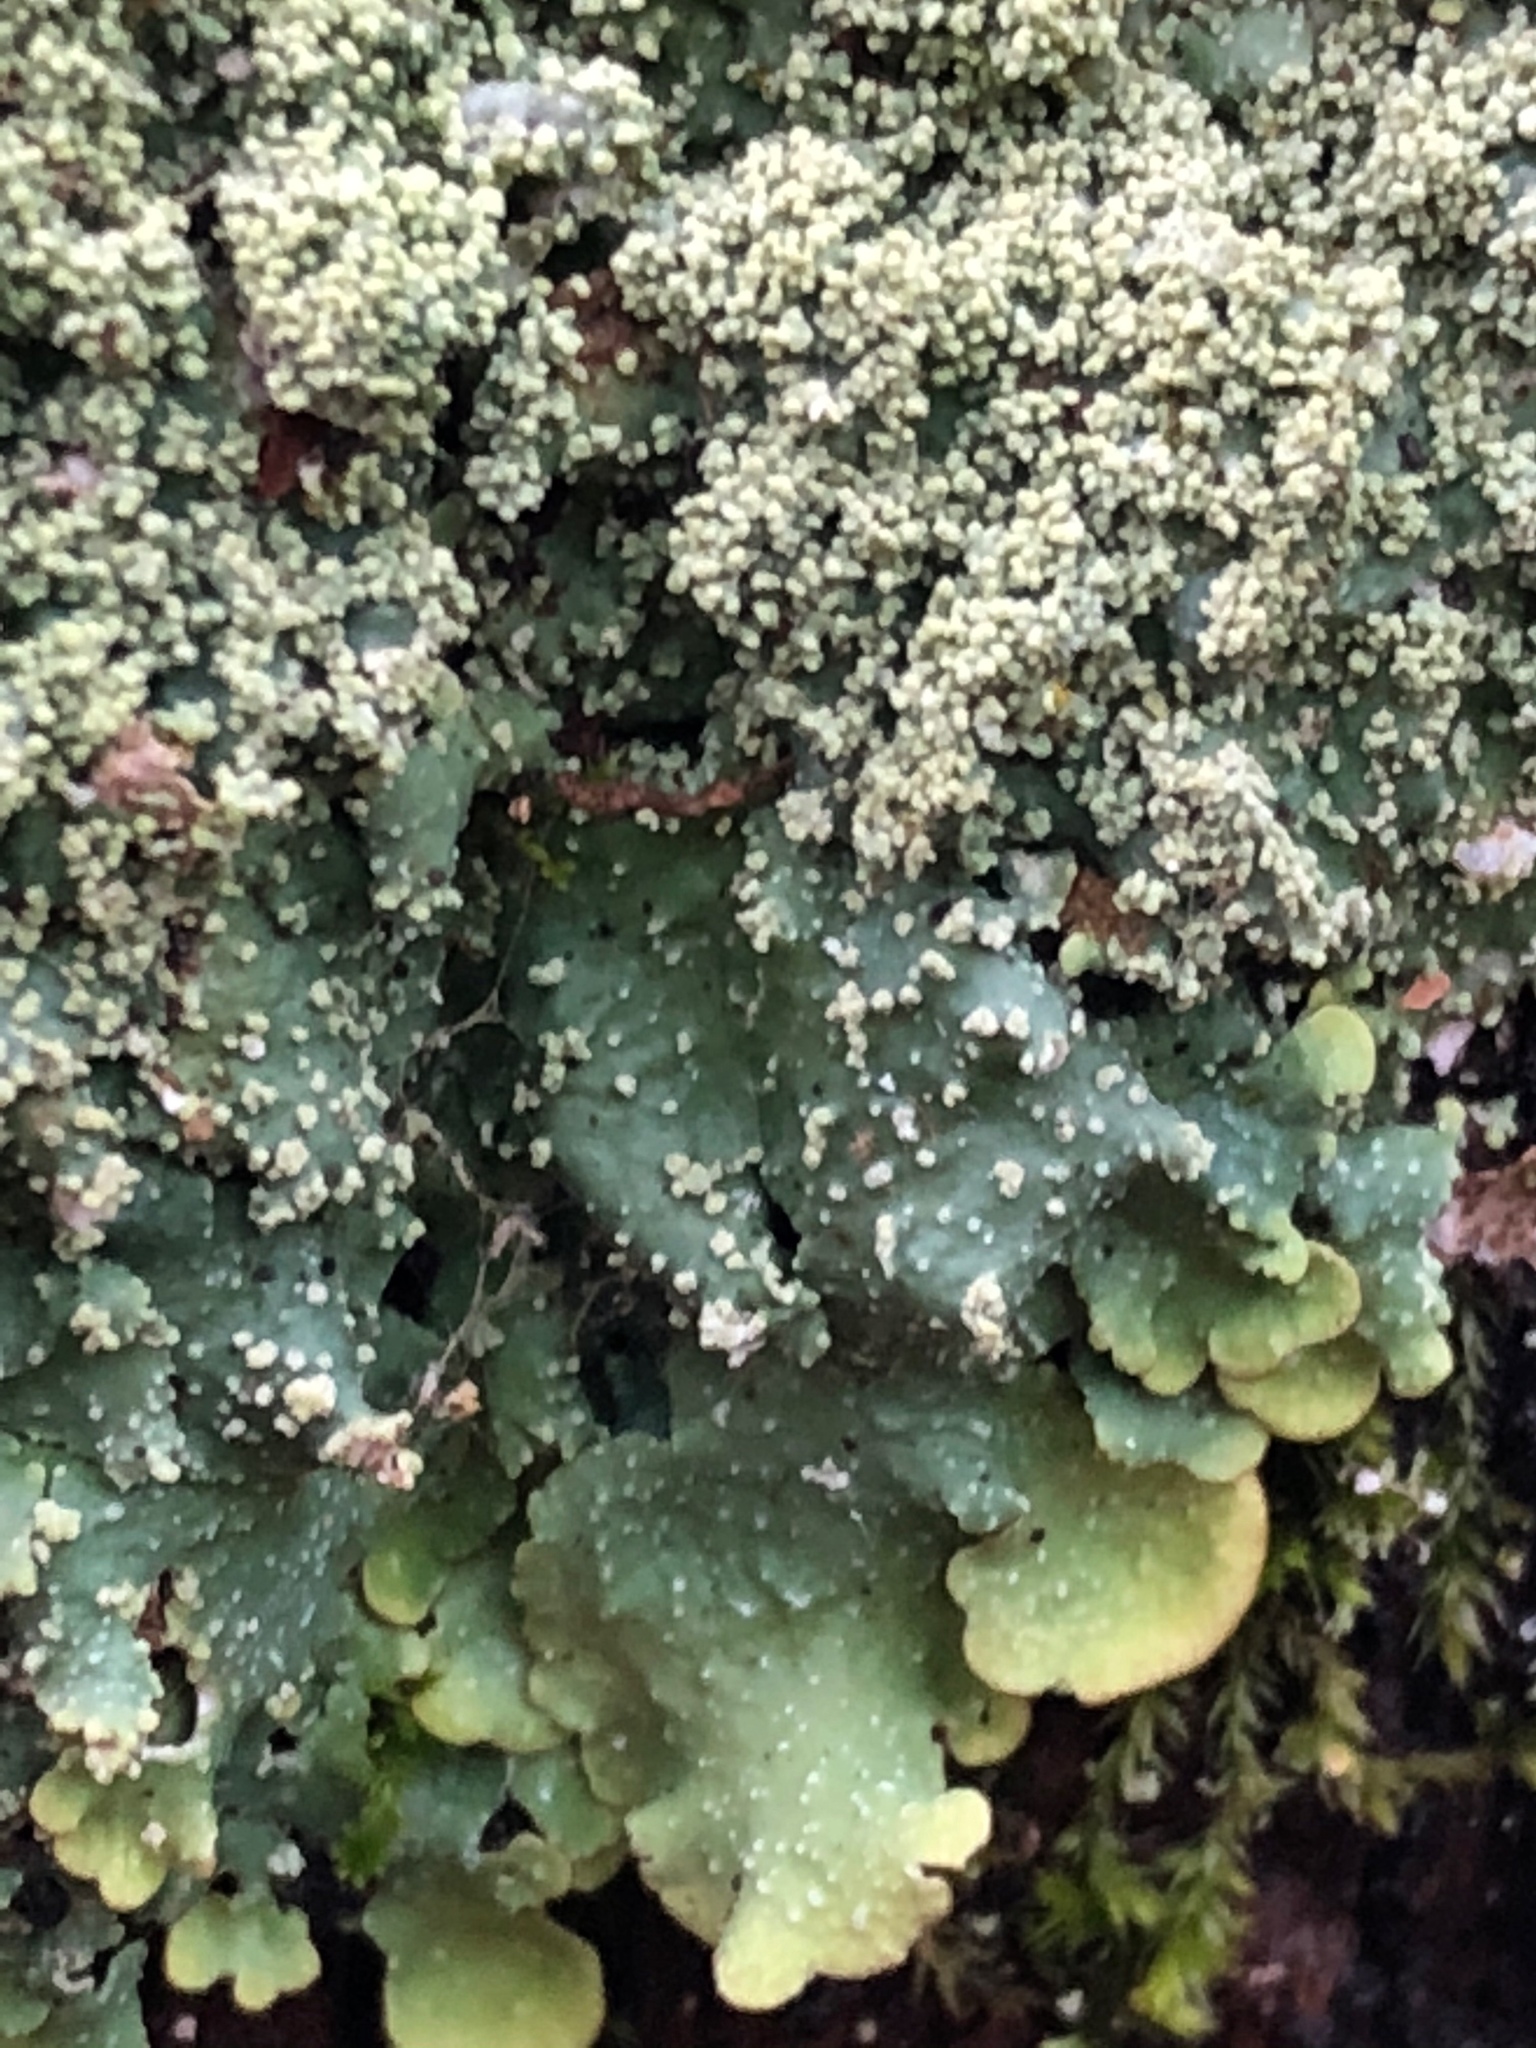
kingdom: Fungi
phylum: Ascomycota
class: Lecanoromycetes
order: Lecanorales
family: Parmeliaceae
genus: Punctelia
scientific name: Punctelia missouriensis
